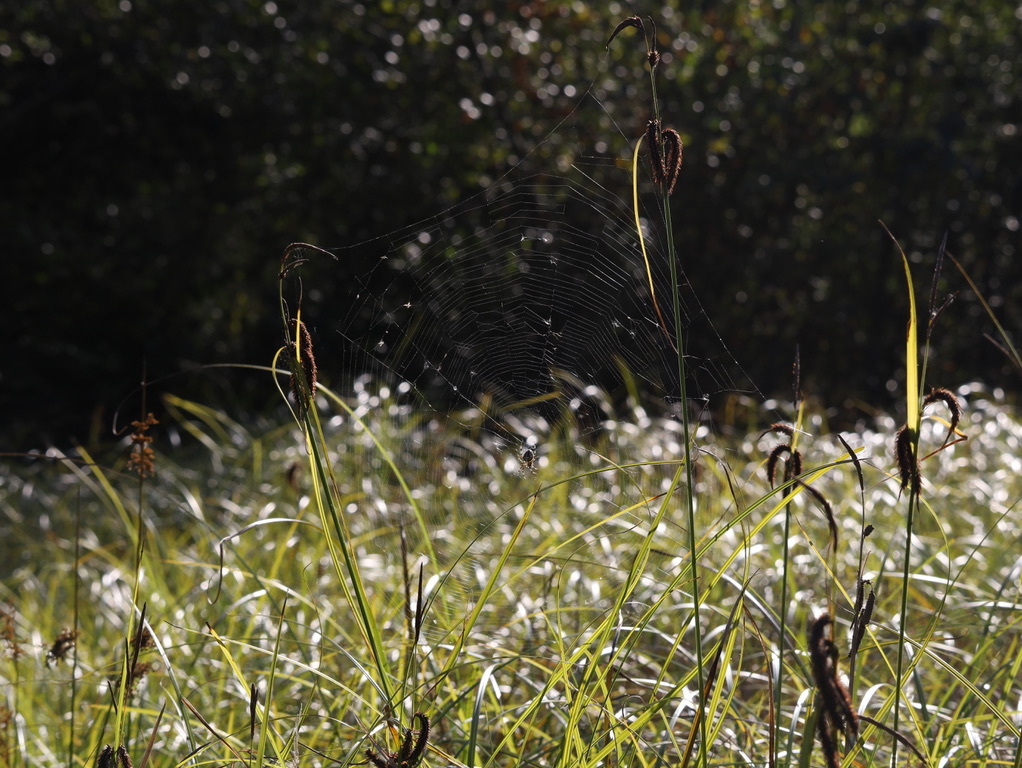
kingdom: Animalia
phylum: Arthropoda
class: Arachnida
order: Araneae
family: Araneidae
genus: Araneus
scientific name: Araneus diadematus
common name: Cross orbweaver
